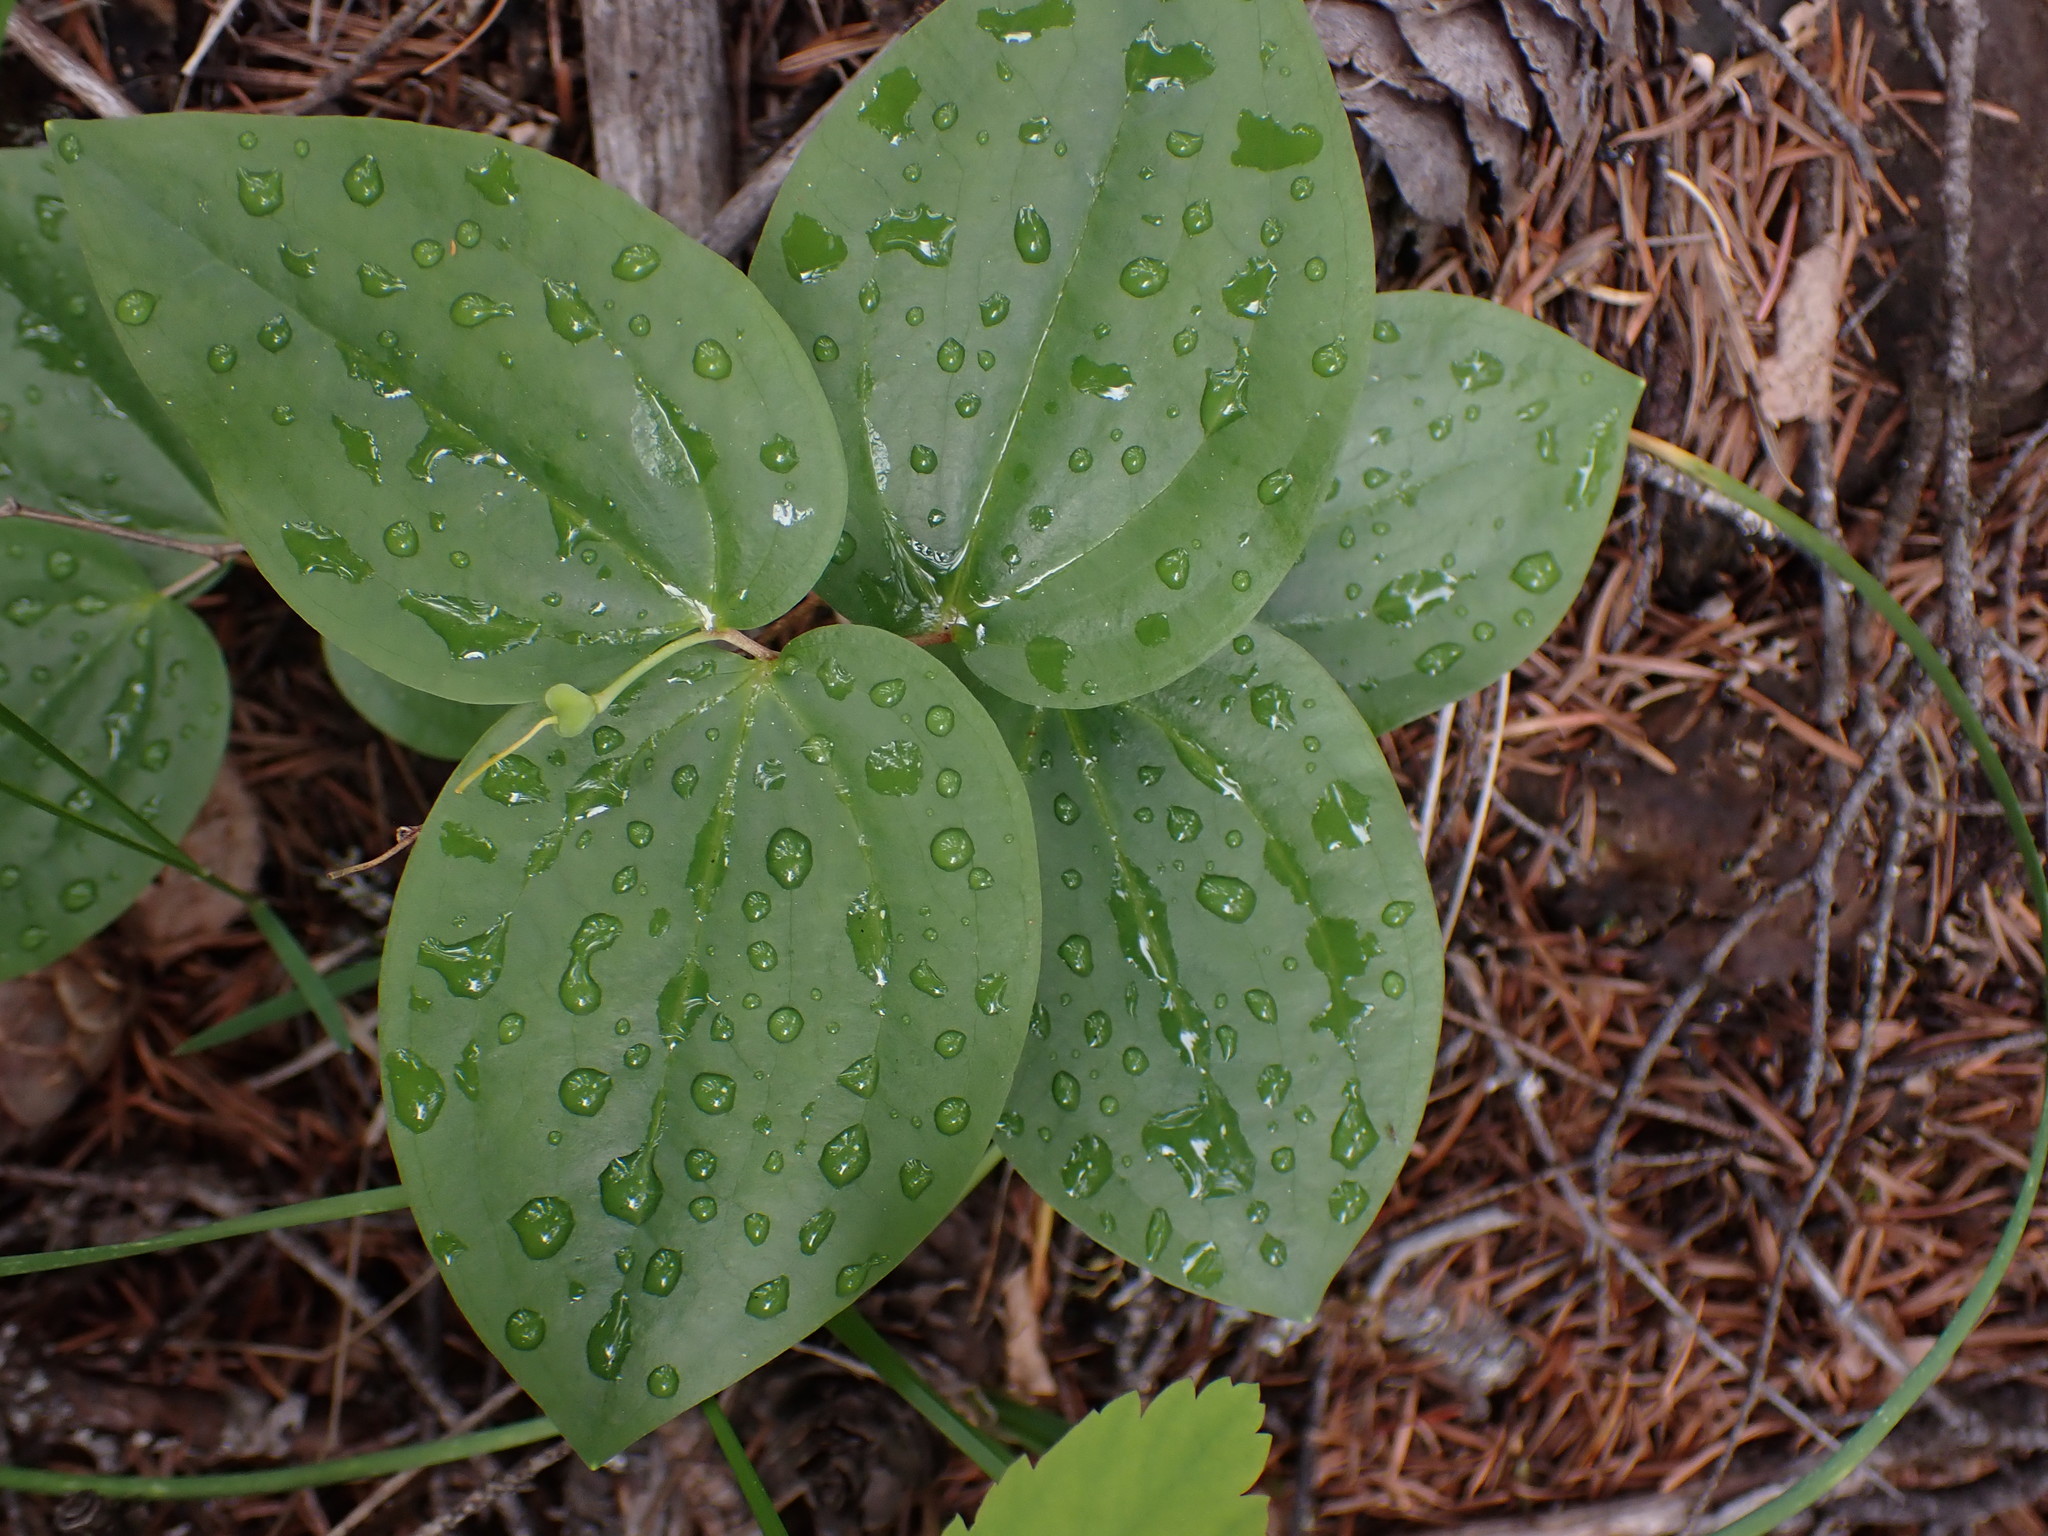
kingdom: Plantae
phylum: Tracheophyta
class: Liliopsida
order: Liliales
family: Liliaceae
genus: Prosartes
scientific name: Prosartes trachycarpa
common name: Rough-fruit fairy-bells
